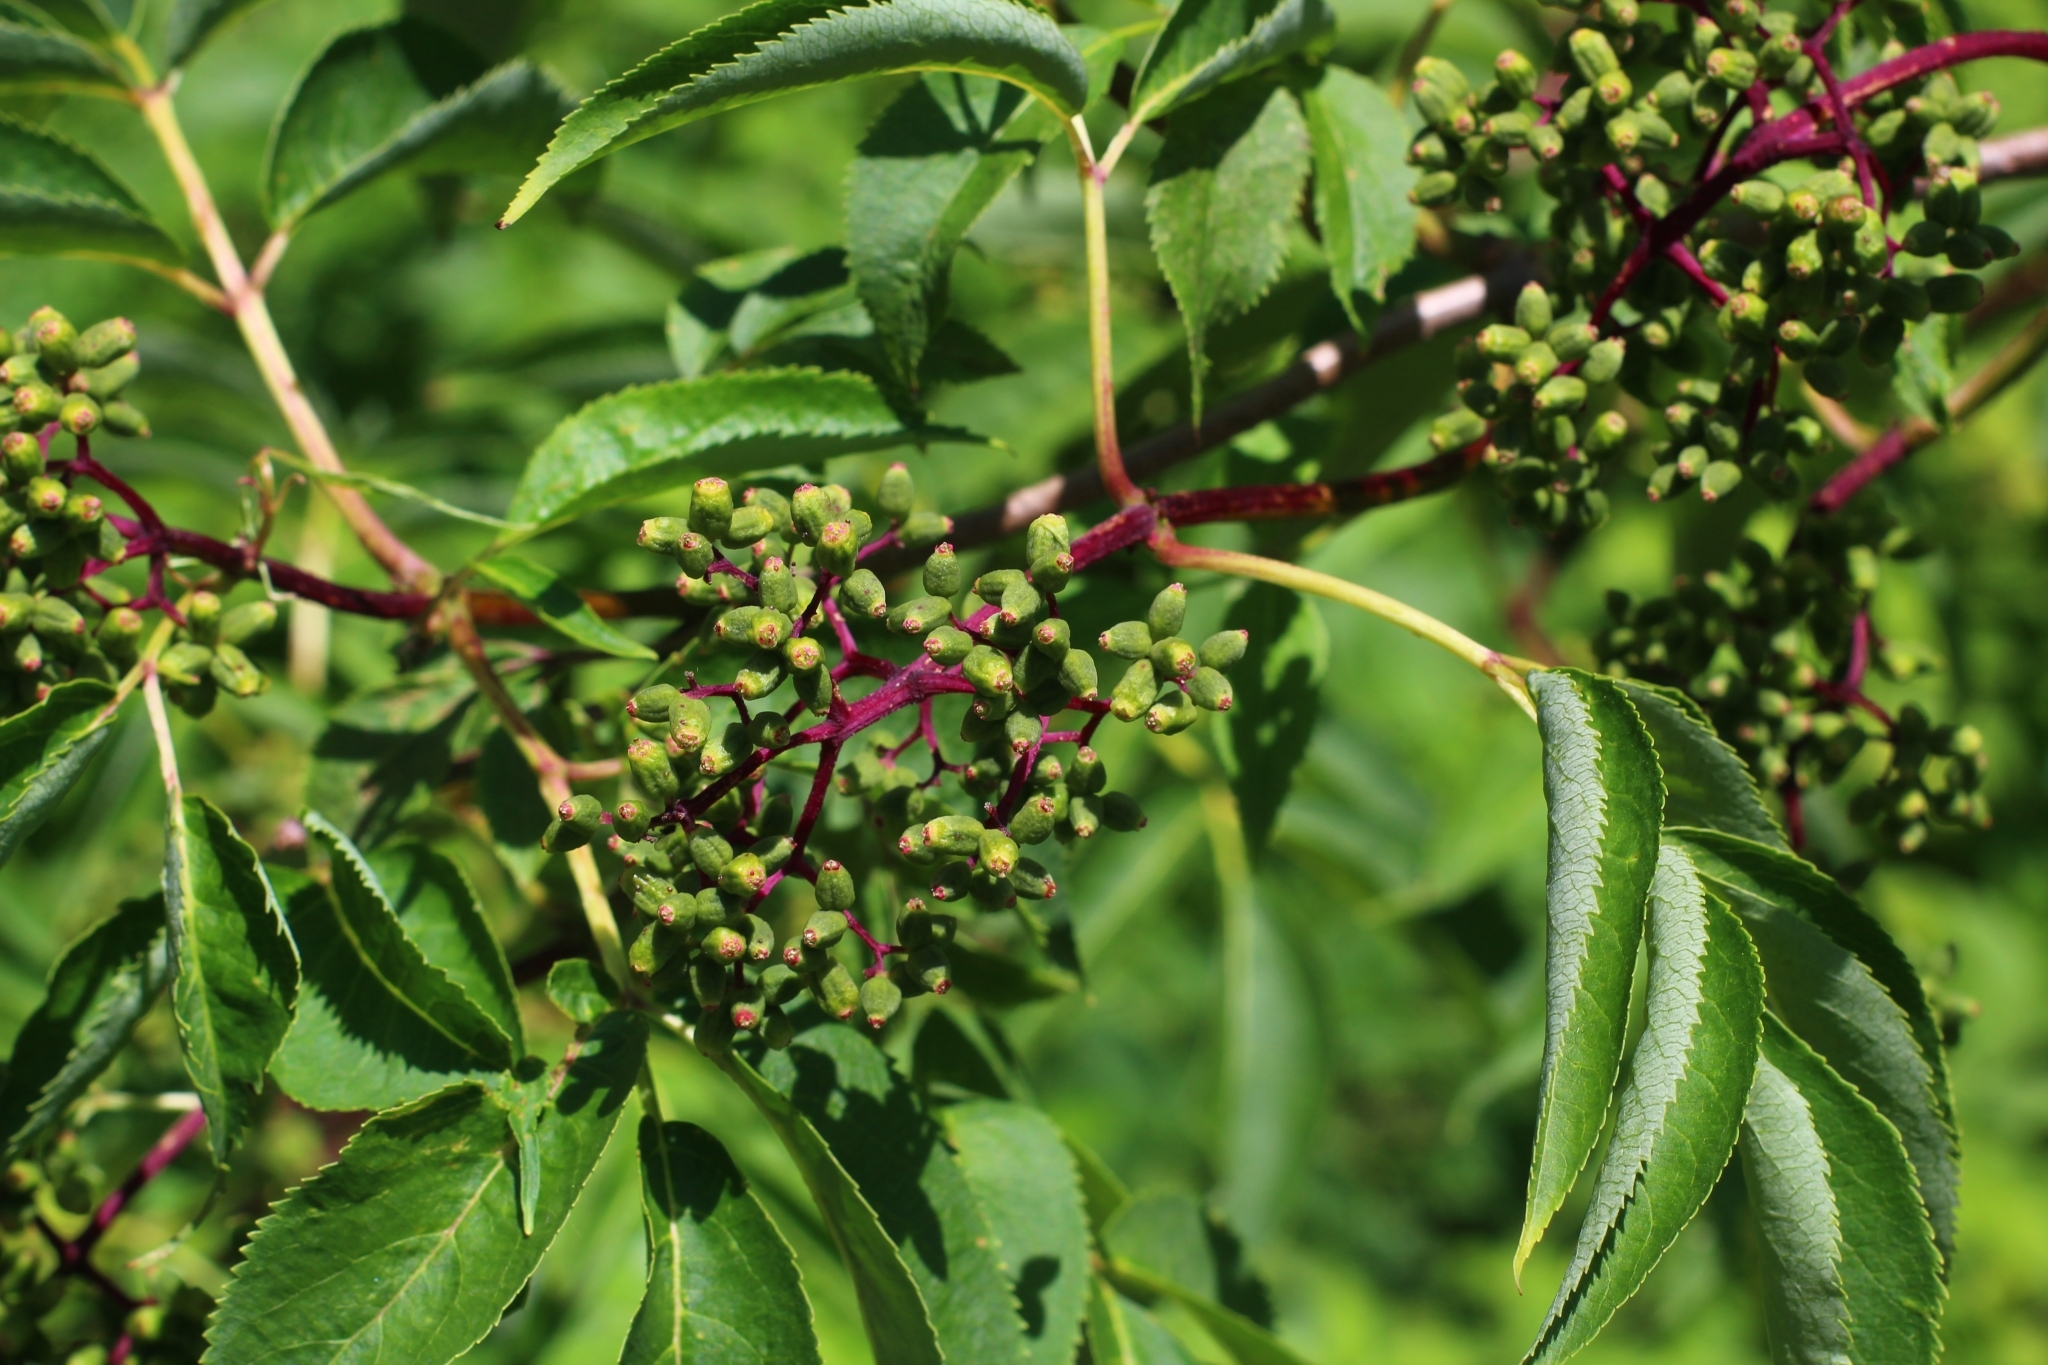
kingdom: Plantae
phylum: Tracheophyta
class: Magnoliopsida
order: Dipsacales
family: Viburnaceae
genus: Sambucus
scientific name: Sambucus racemosa
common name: Red-berried elder
